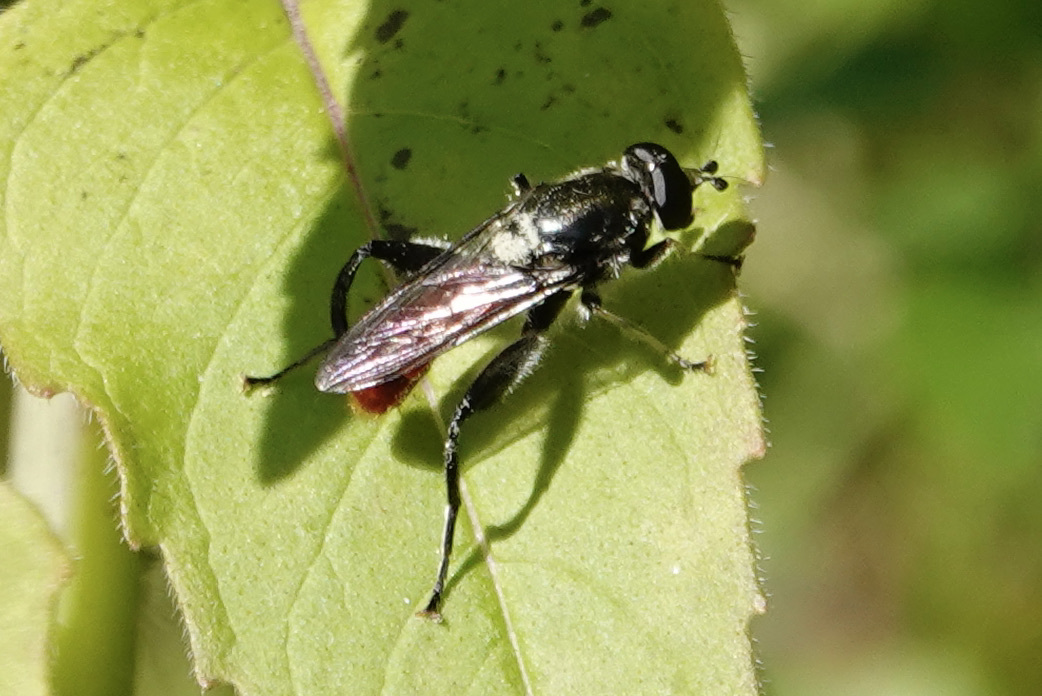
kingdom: Animalia
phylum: Arthropoda
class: Insecta
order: Diptera
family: Syrphidae
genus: Brachypalpoides
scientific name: Brachypalpoides bicolor
